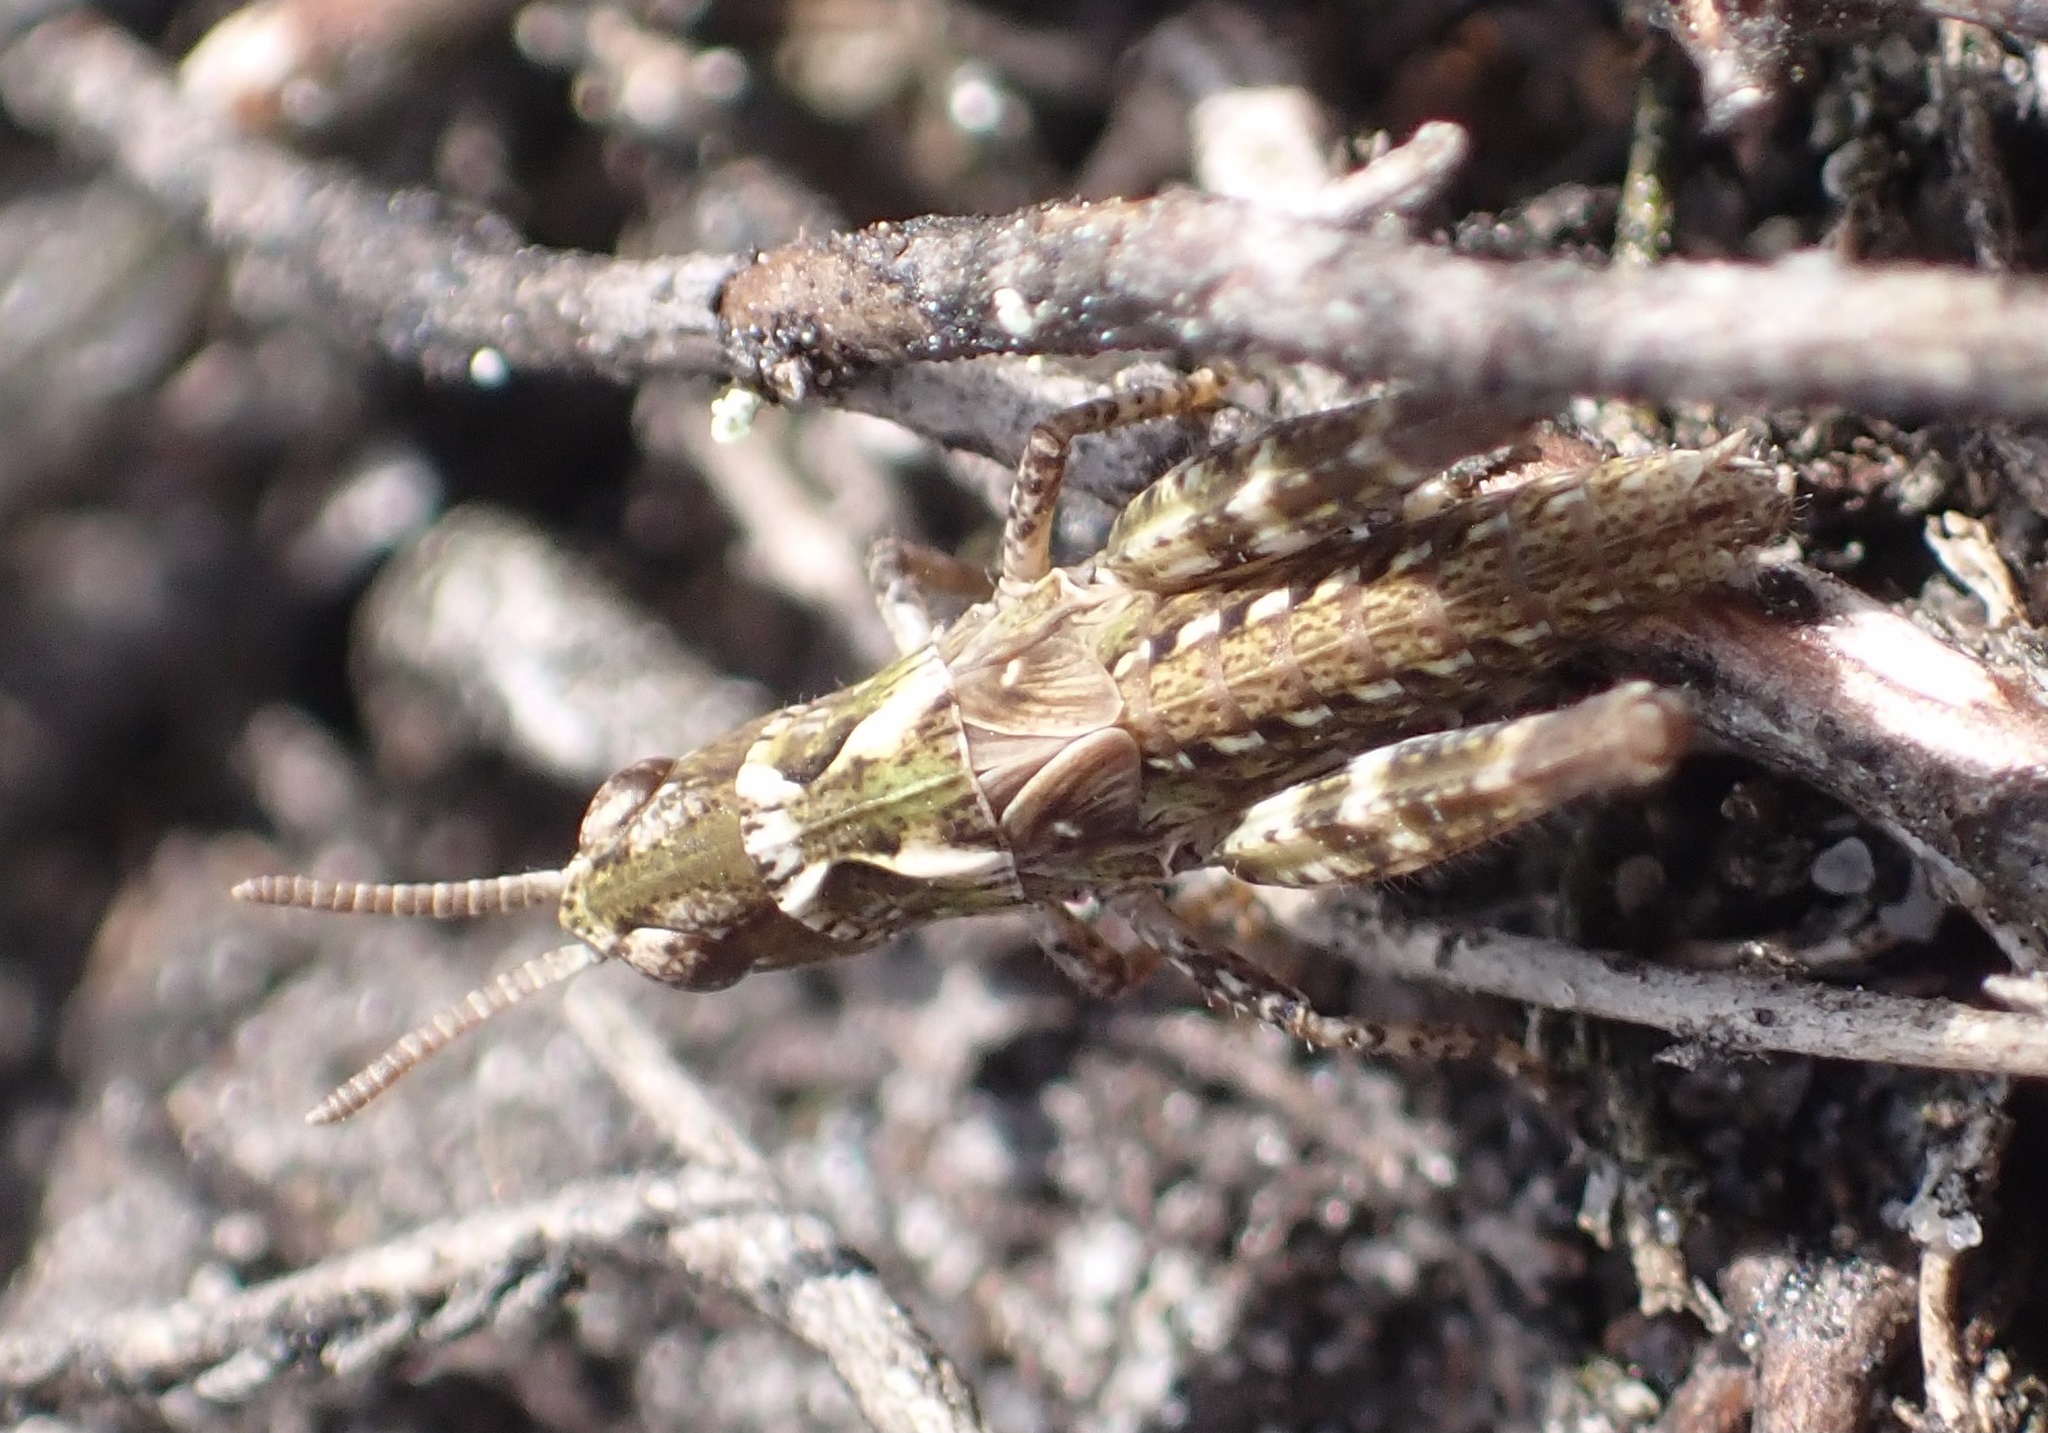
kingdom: Animalia
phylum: Arthropoda
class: Insecta
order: Orthoptera
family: Acrididae
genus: Myrmeleotettix
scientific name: Myrmeleotettix maculatus
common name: Mottled grasshopper
